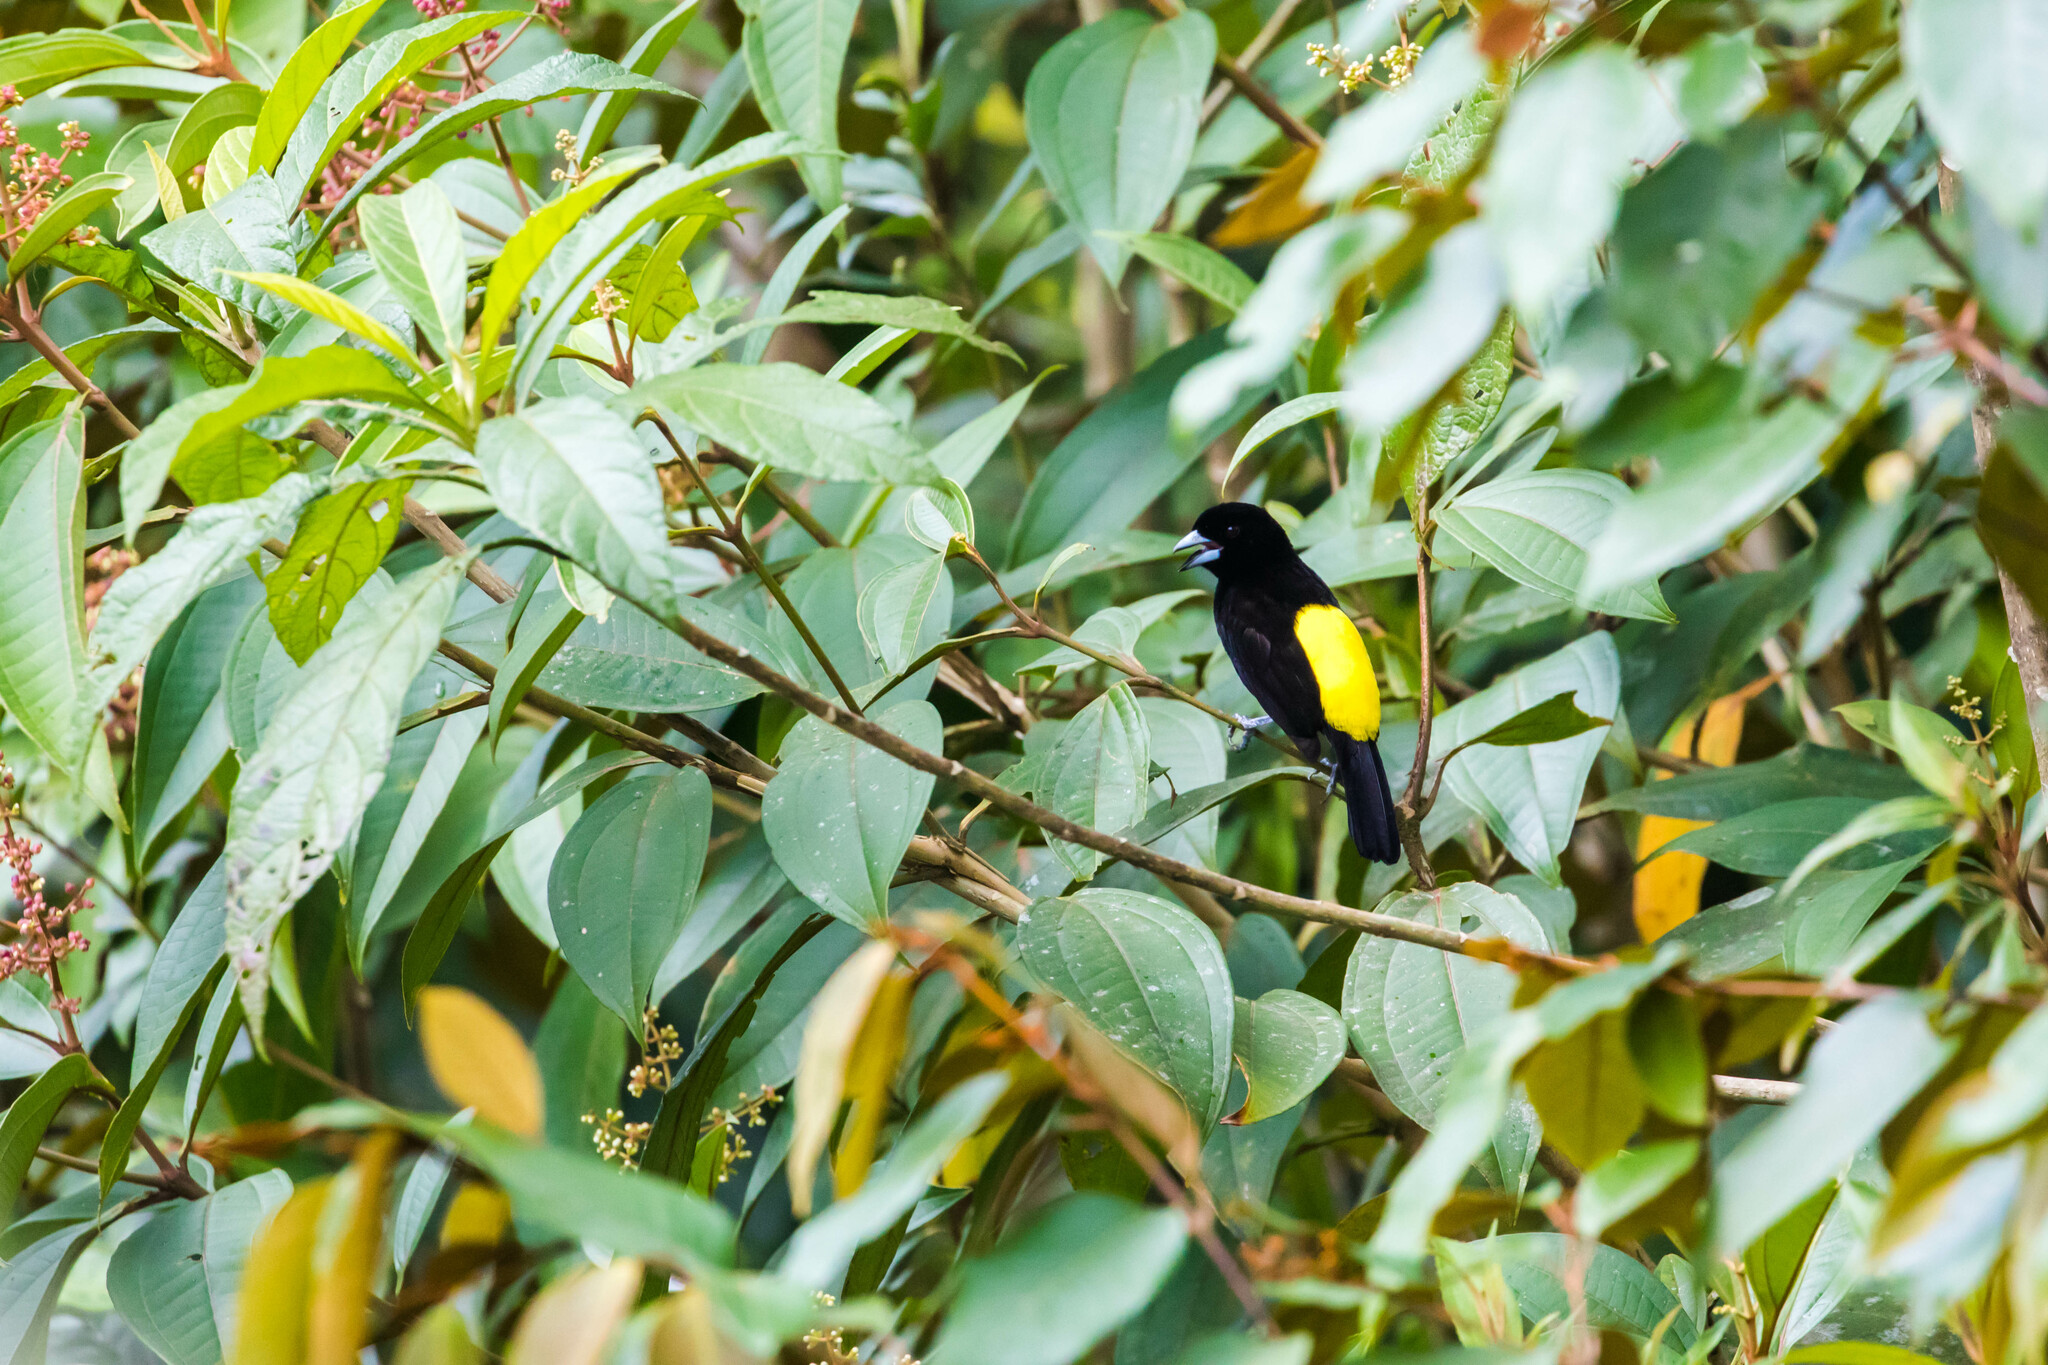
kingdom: Animalia
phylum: Chordata
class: Aves
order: Passeriformes
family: Thraupidae
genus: Ramphocelus
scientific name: Ramphocelus flammigerus
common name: Flame-rumped tanager
